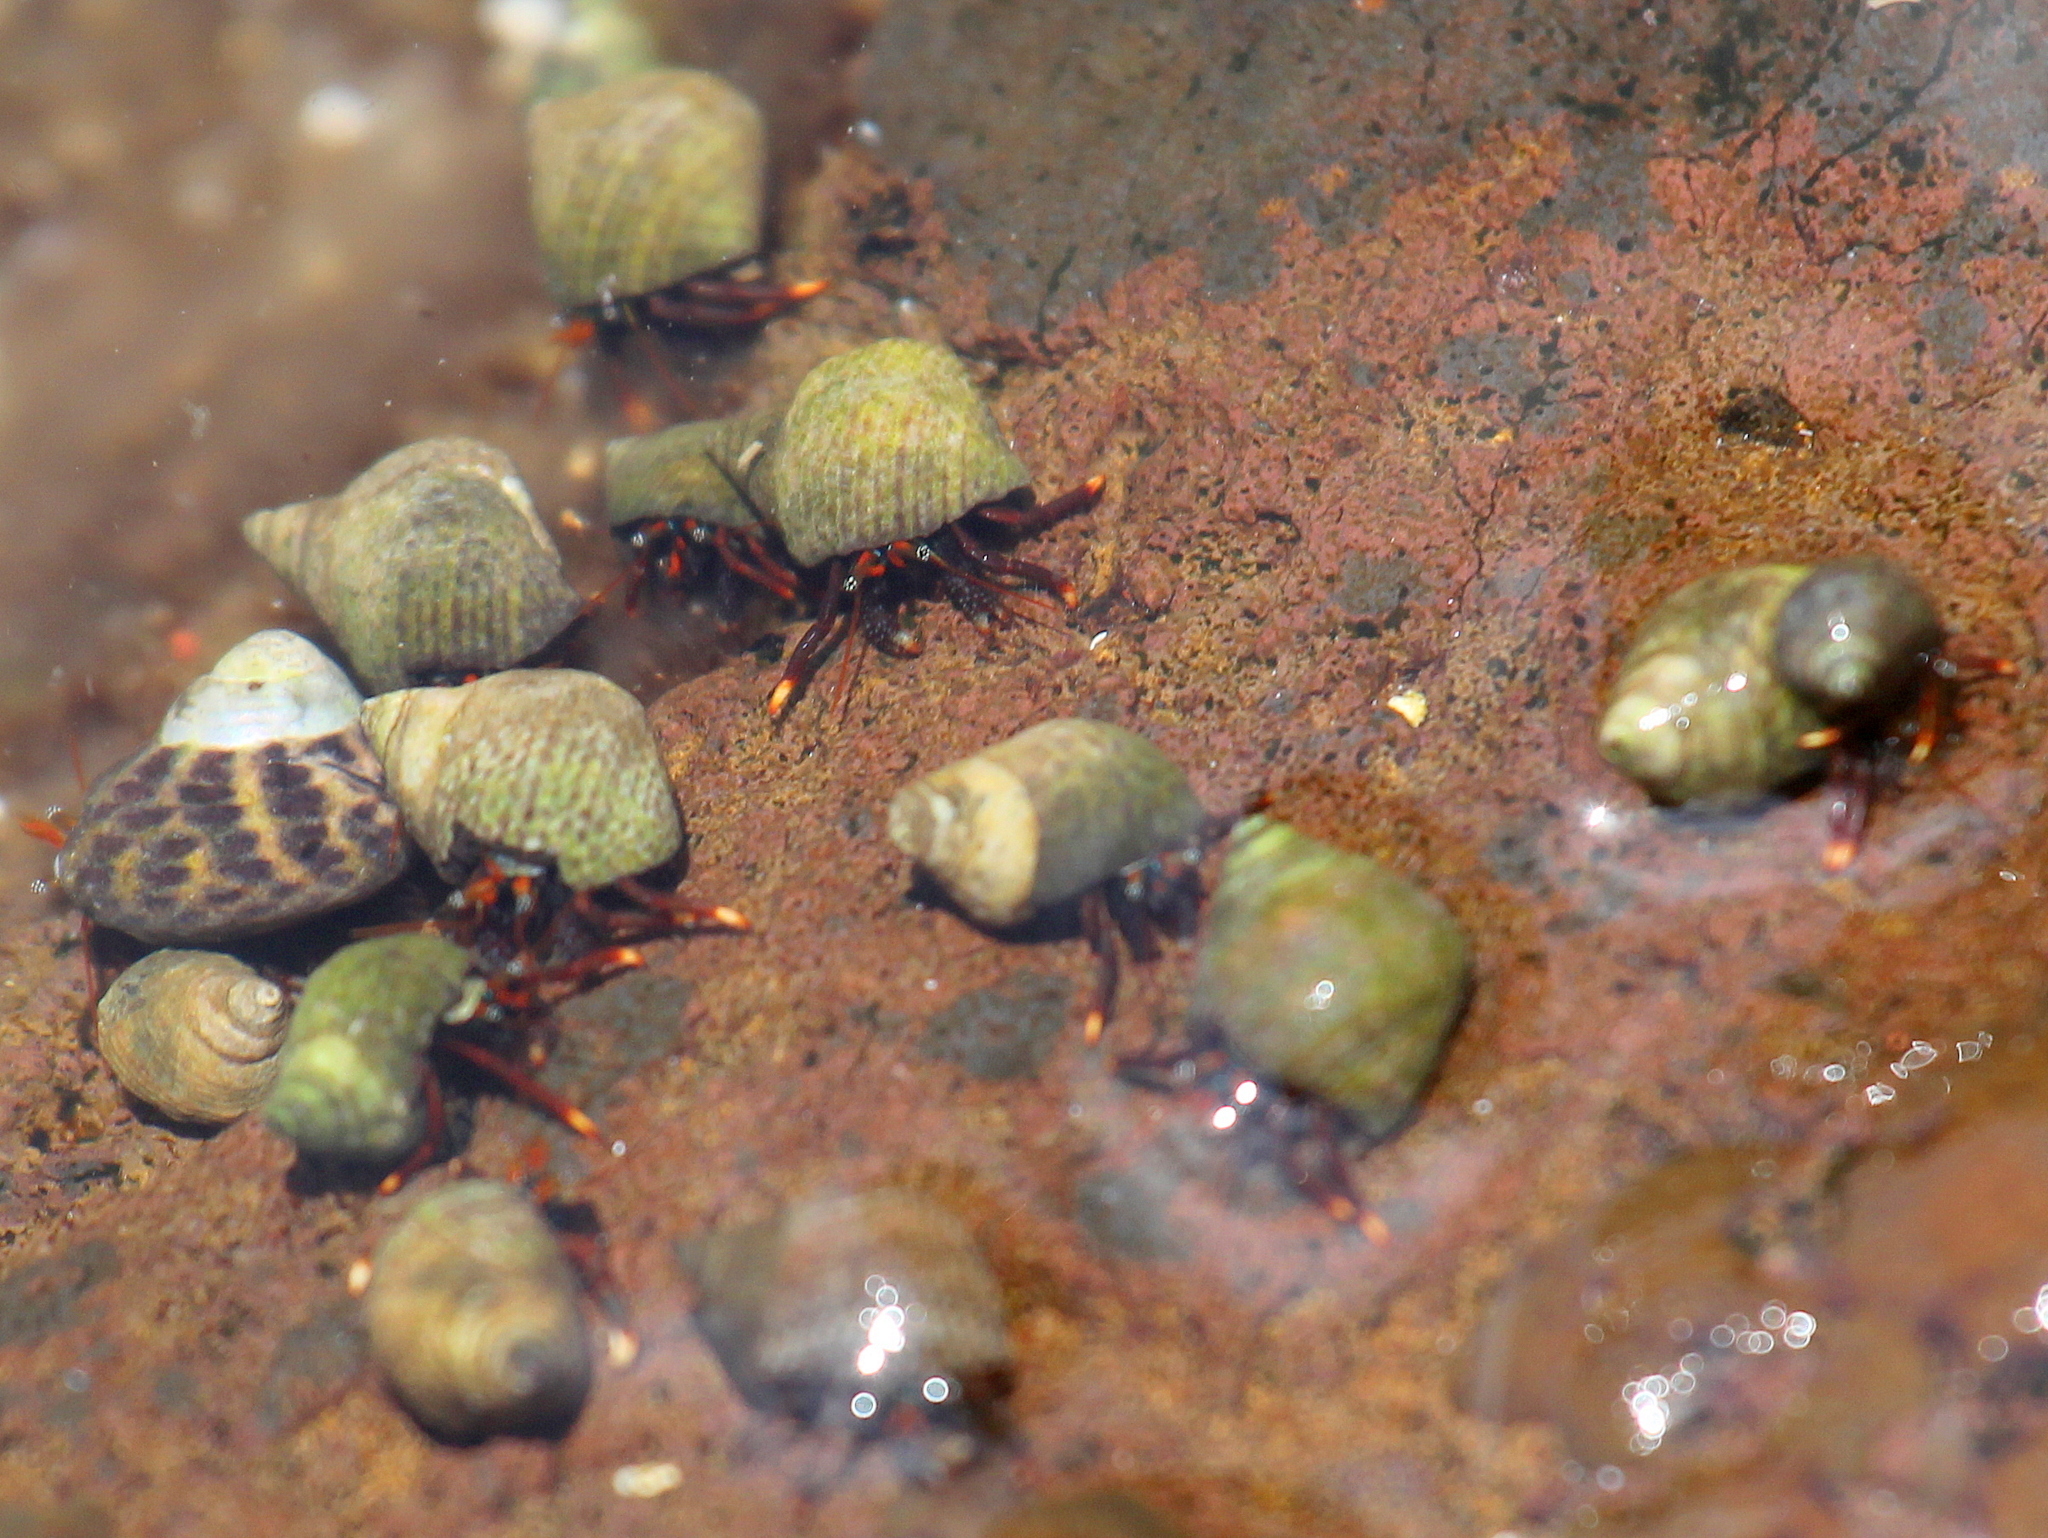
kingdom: Animalia
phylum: Arthropoda
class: Malacostraca
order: Decapoda
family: Diogenidae
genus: Clibanarius
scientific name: Clibanarius aequabilis
